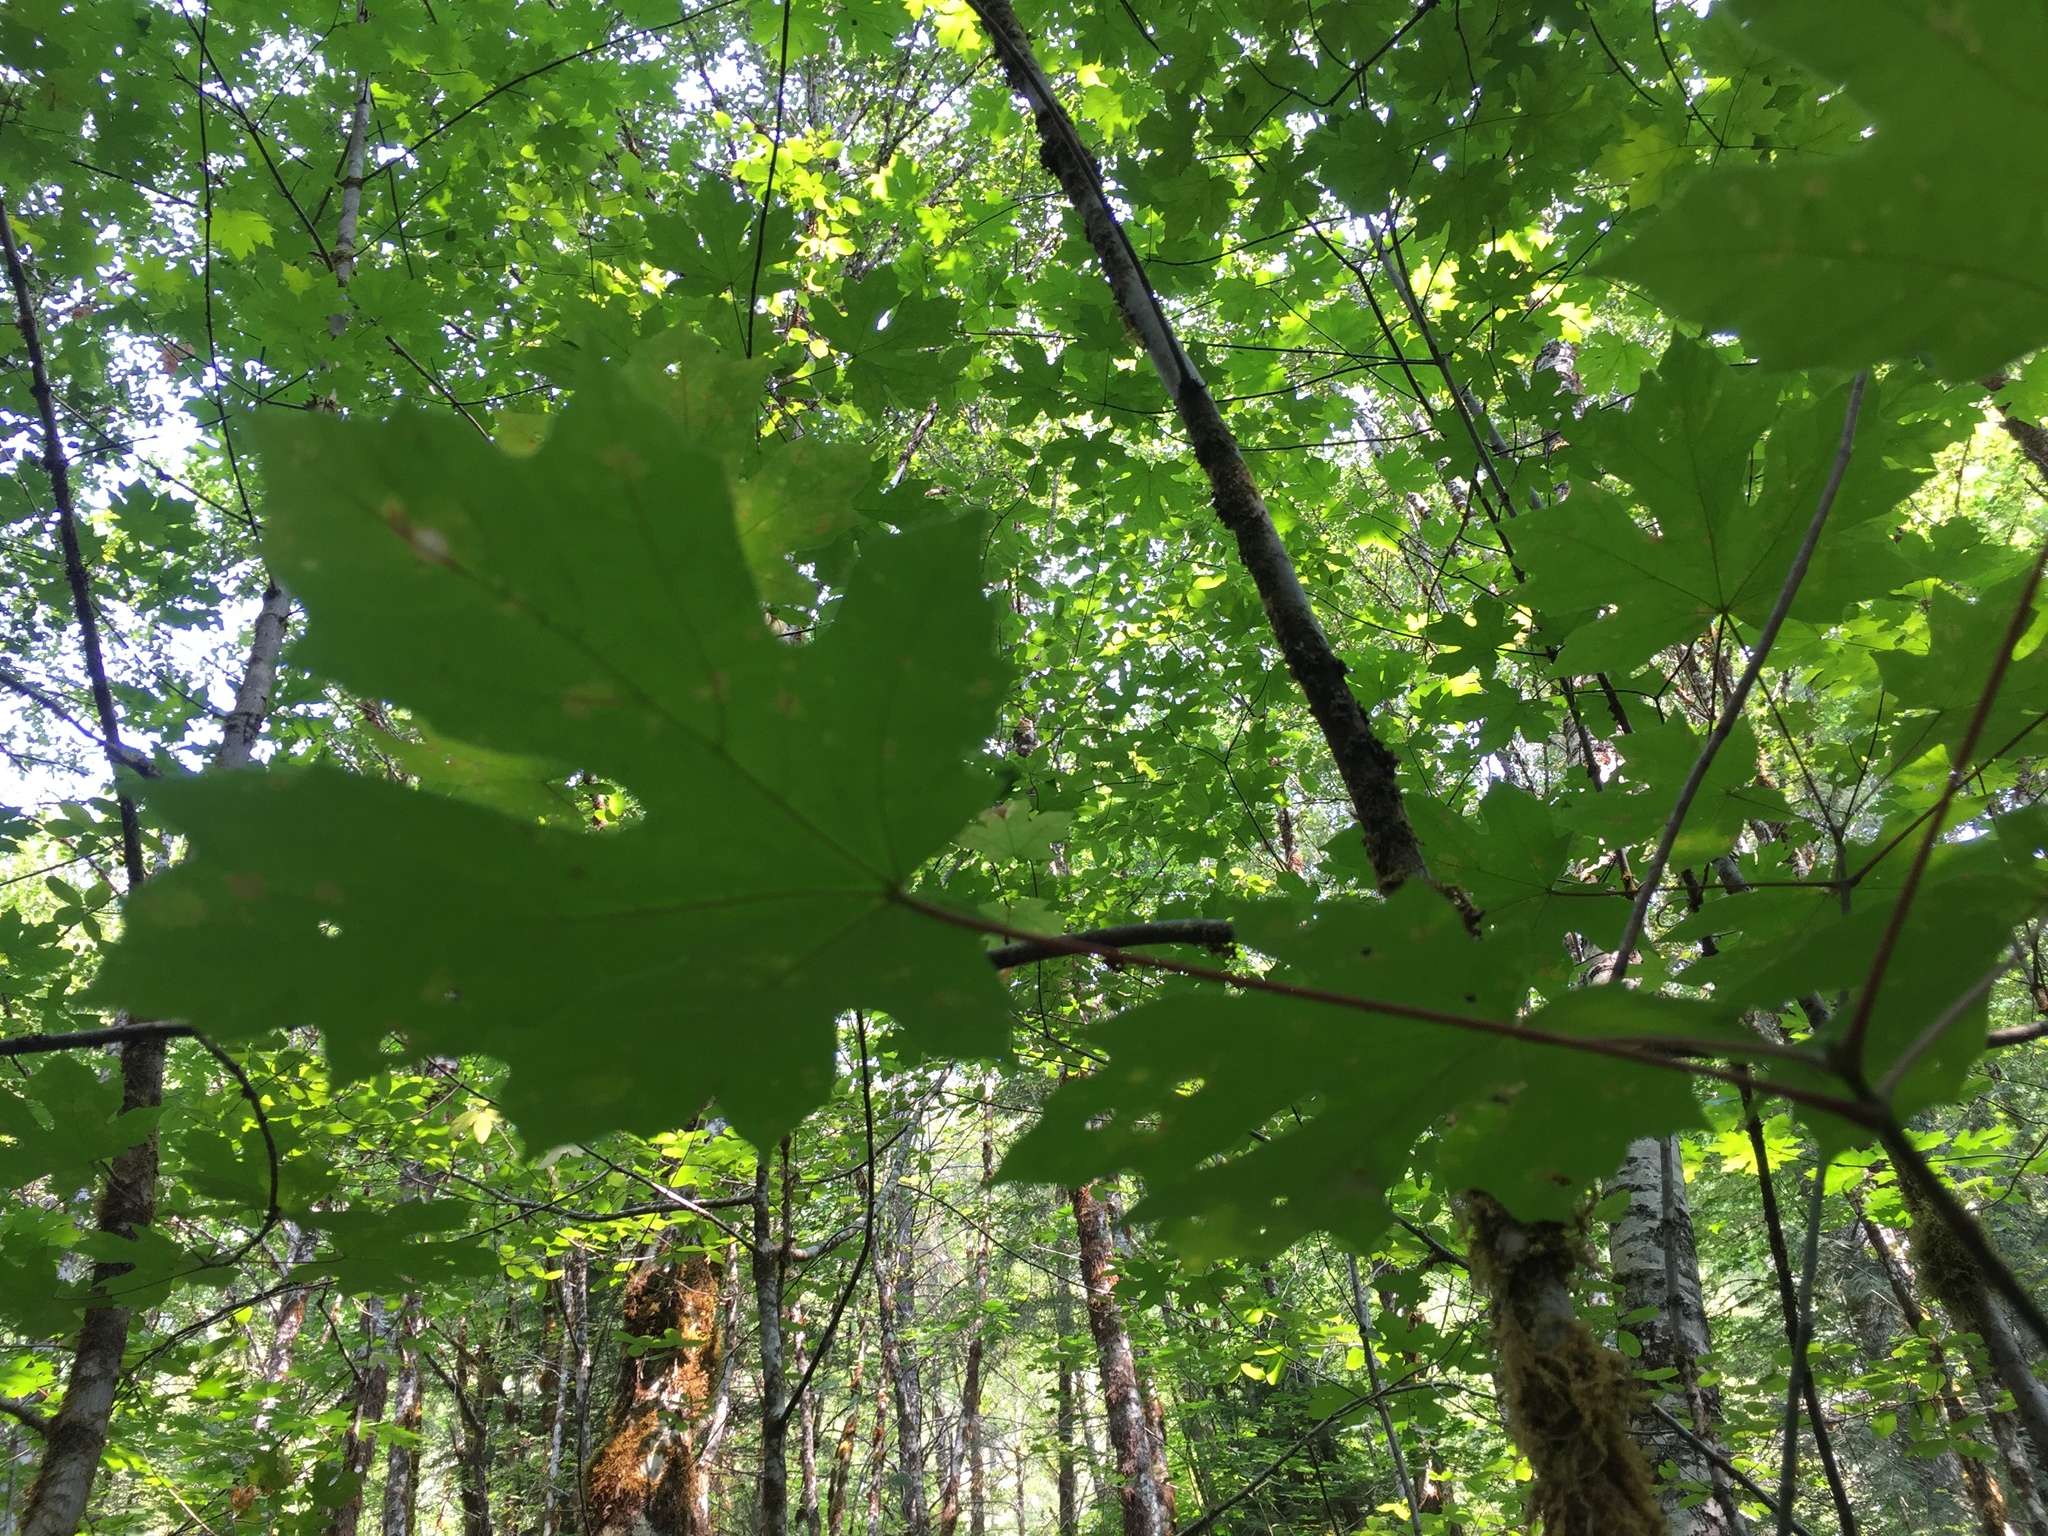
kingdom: Plantae
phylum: Tracheophyta
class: Magnoliopsida
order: Sapindales
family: Sapindaceae
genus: Acer
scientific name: Acer macrophyllum
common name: Oregon maple
